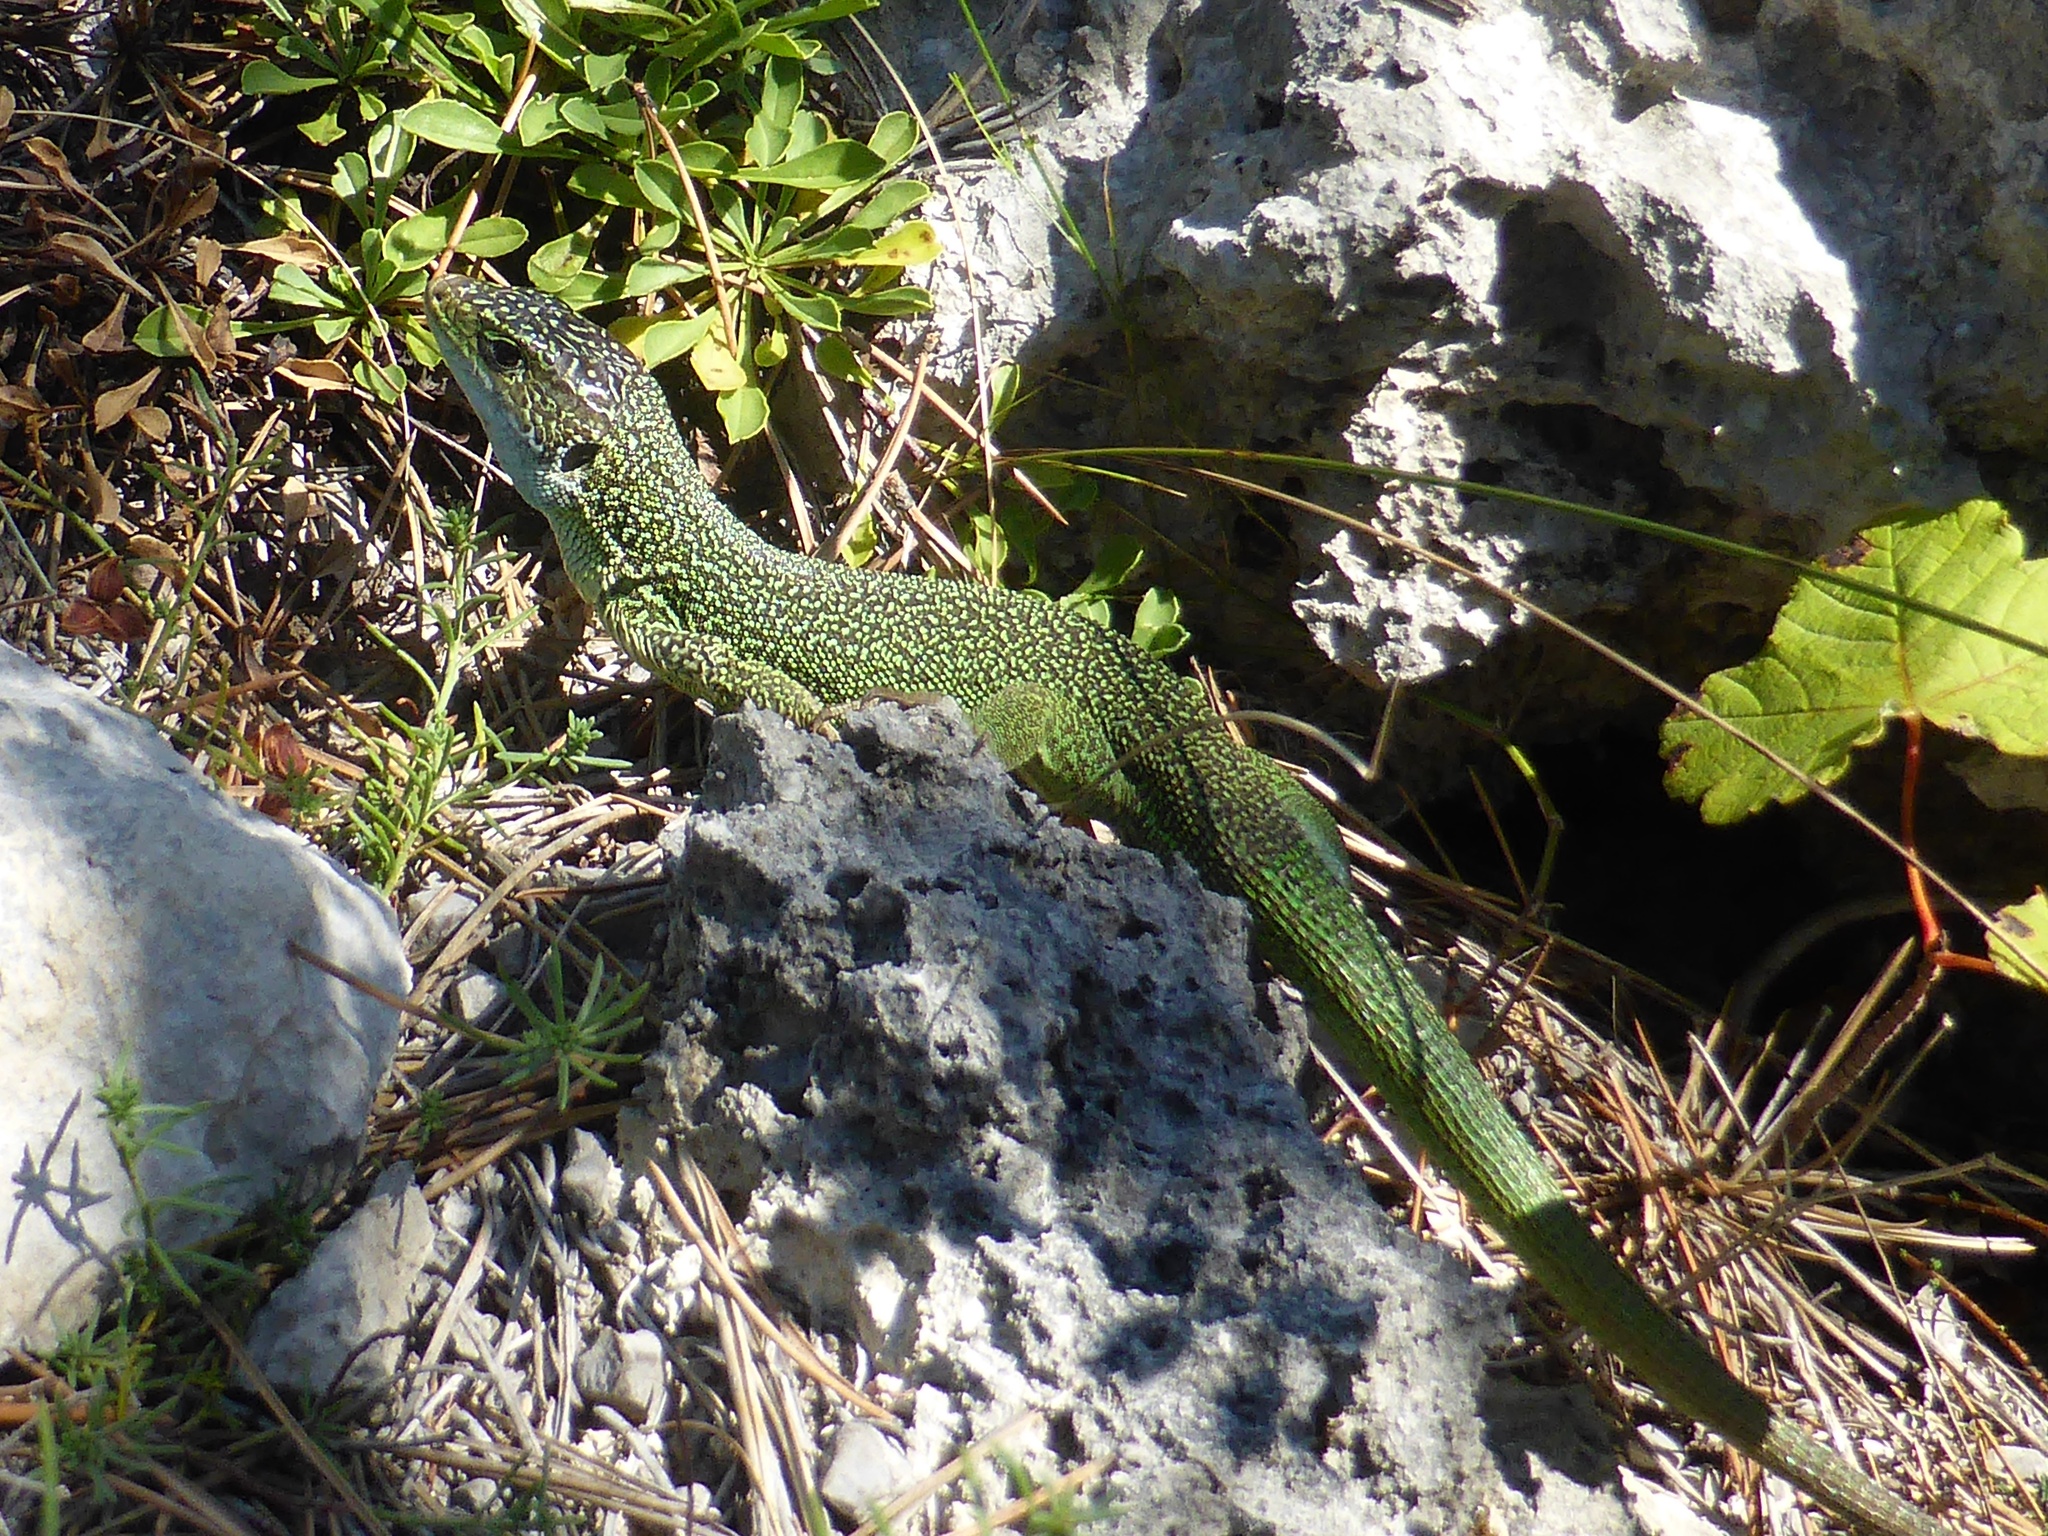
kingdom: Animalia
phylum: Chordata
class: Squamata
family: Lacertidae
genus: Lacerta
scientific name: Lacerta viridis
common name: European green lizard
